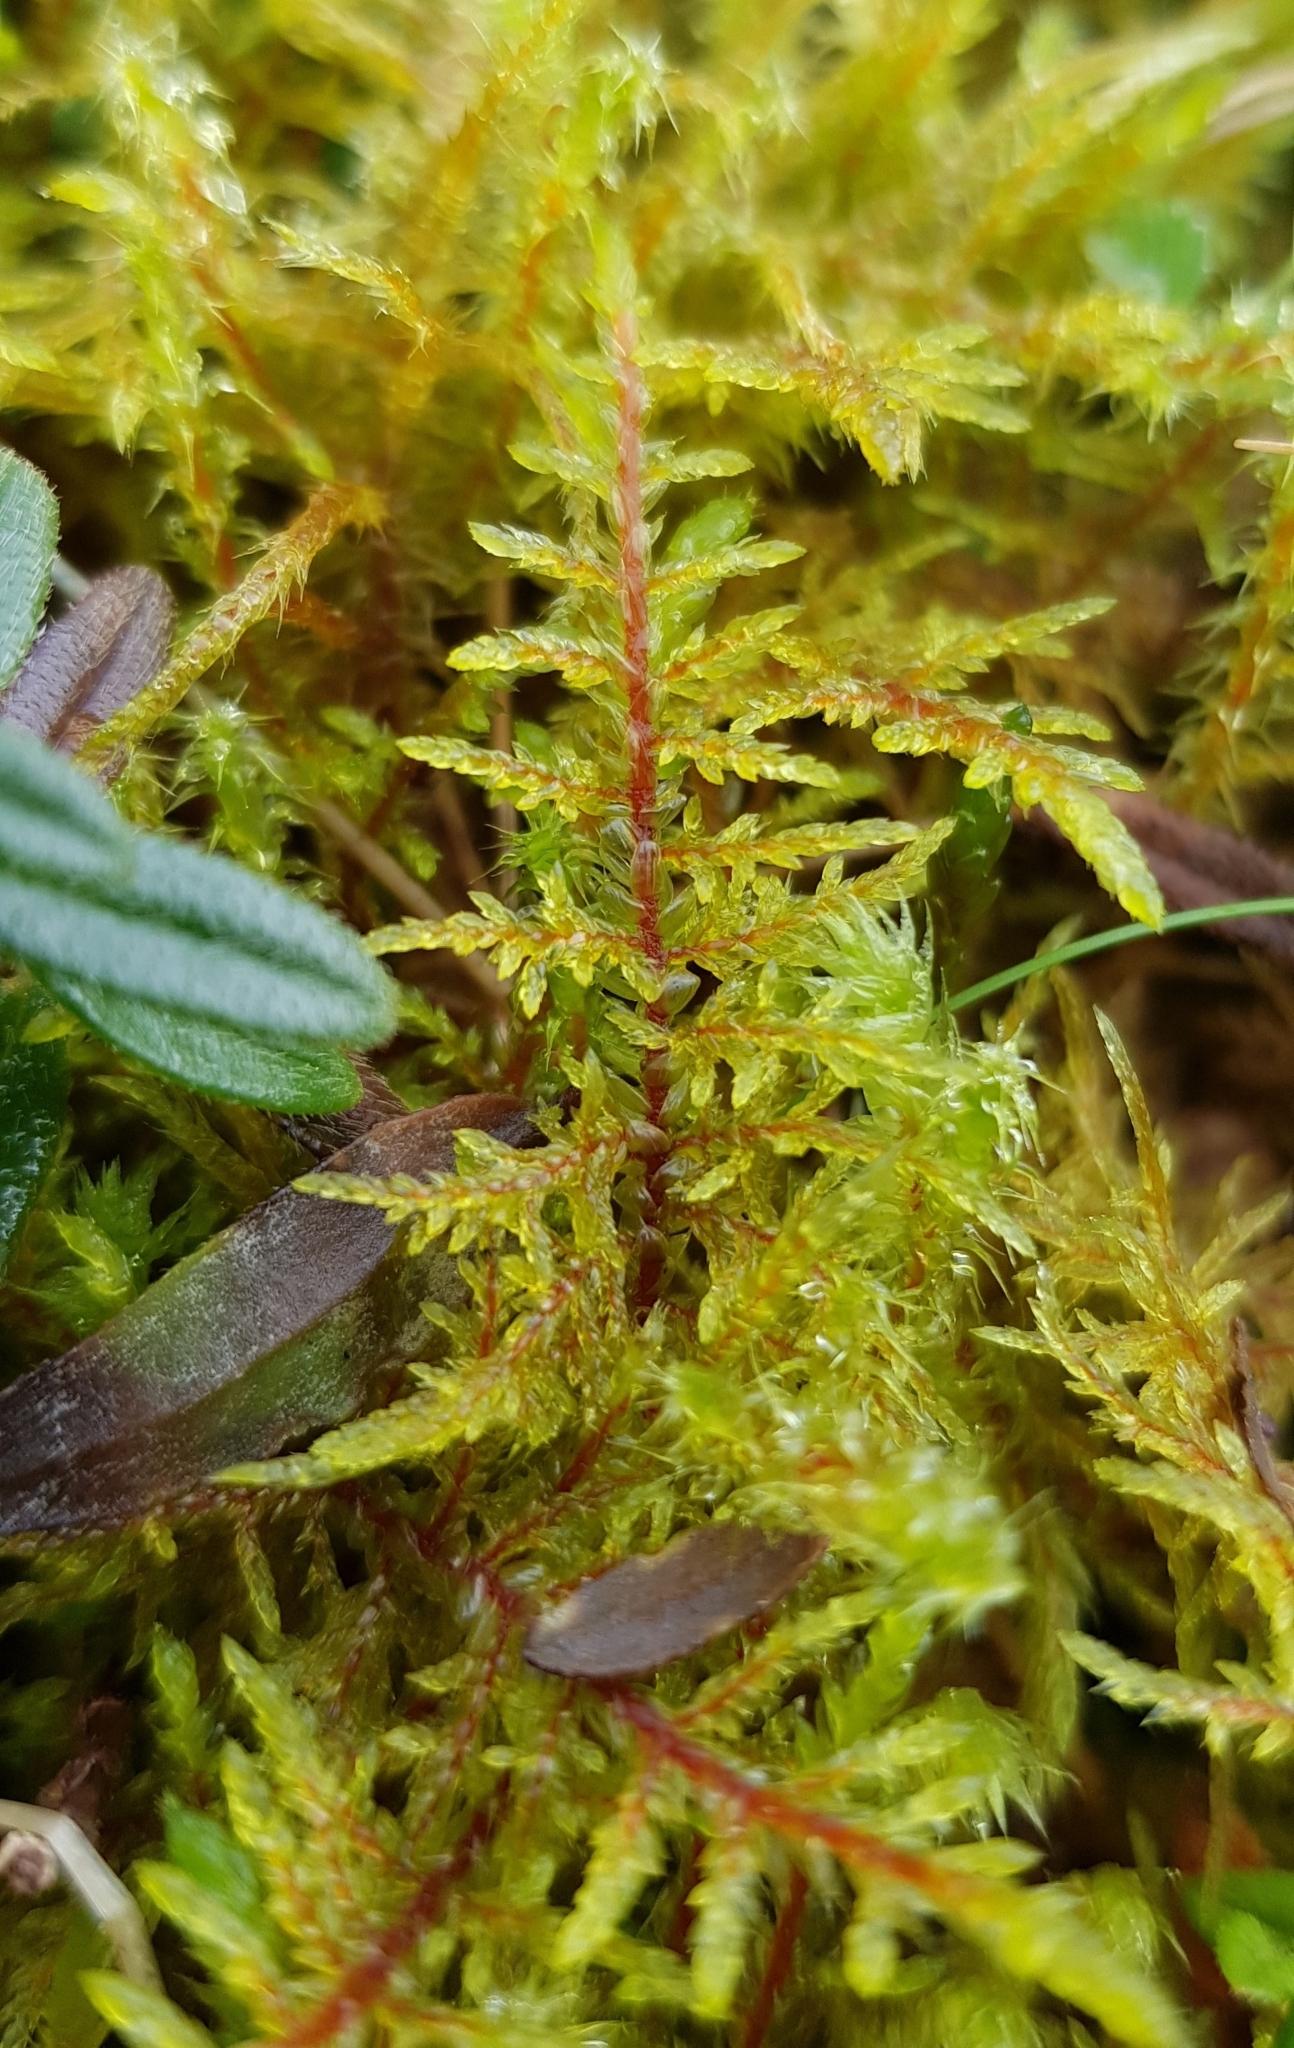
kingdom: Plantae
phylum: Bryophyta
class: Bryopsida
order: Hypnales
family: Hylocomiaceae
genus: Hylocomium
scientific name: Hylocomium splendens
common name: Stairstep moss
